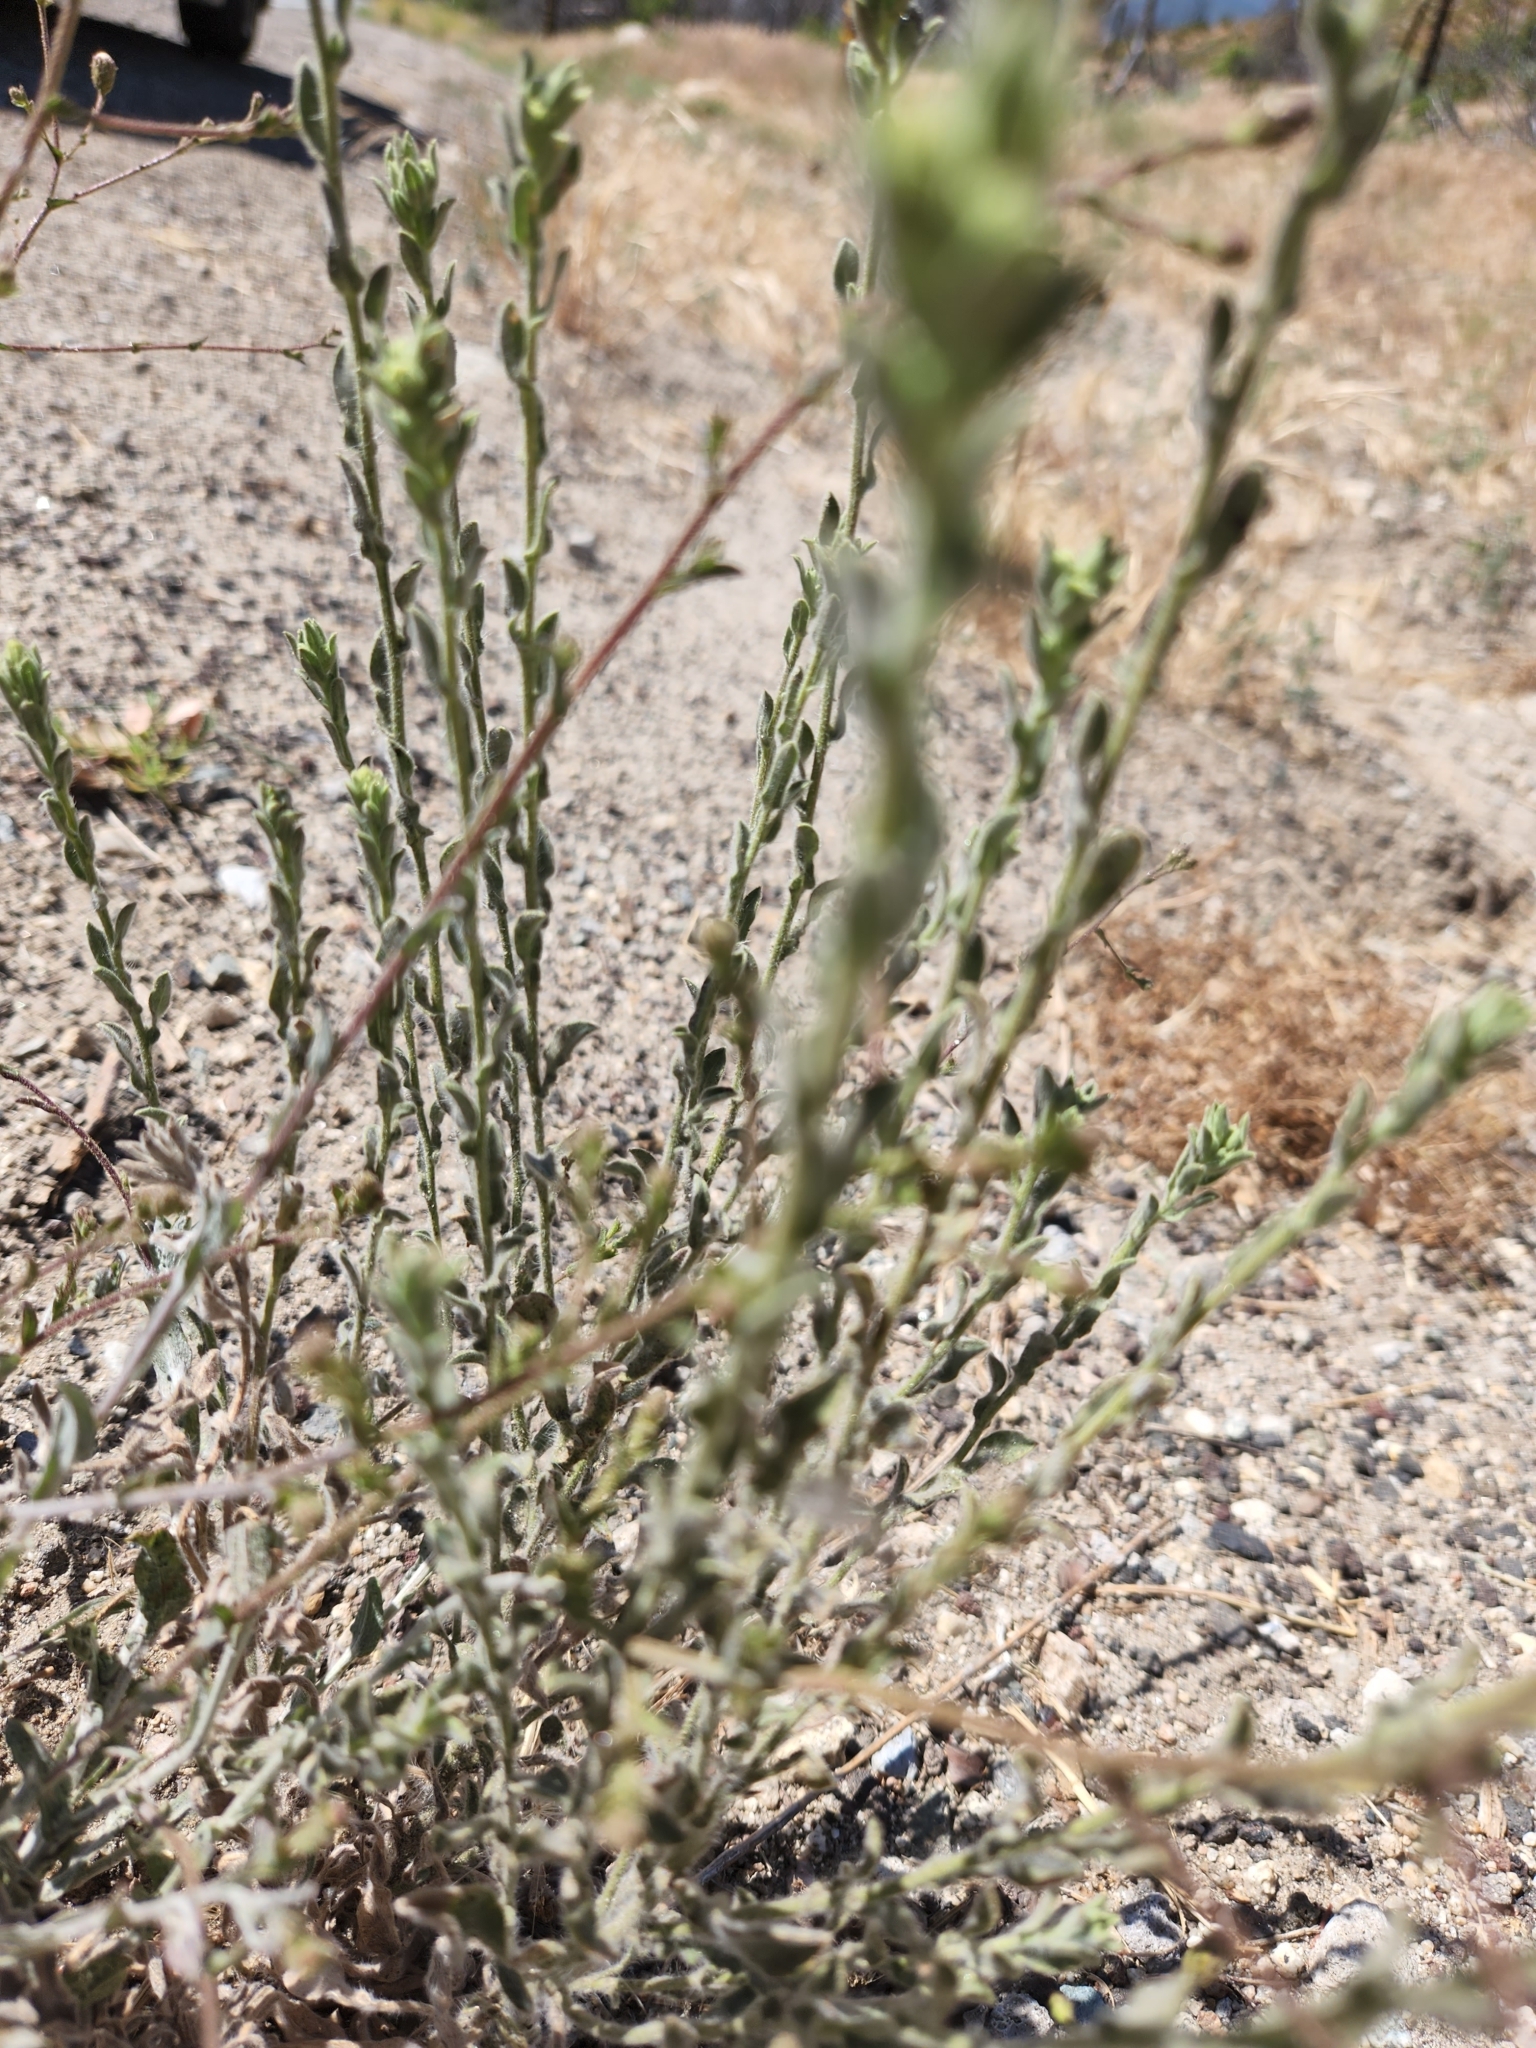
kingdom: Plantae
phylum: Tracheophyta
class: Magnoliopsida
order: Asterales
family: Asteraceae
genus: Corethrogyne
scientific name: Corethrogyne filaginifolia
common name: Sand-aster
